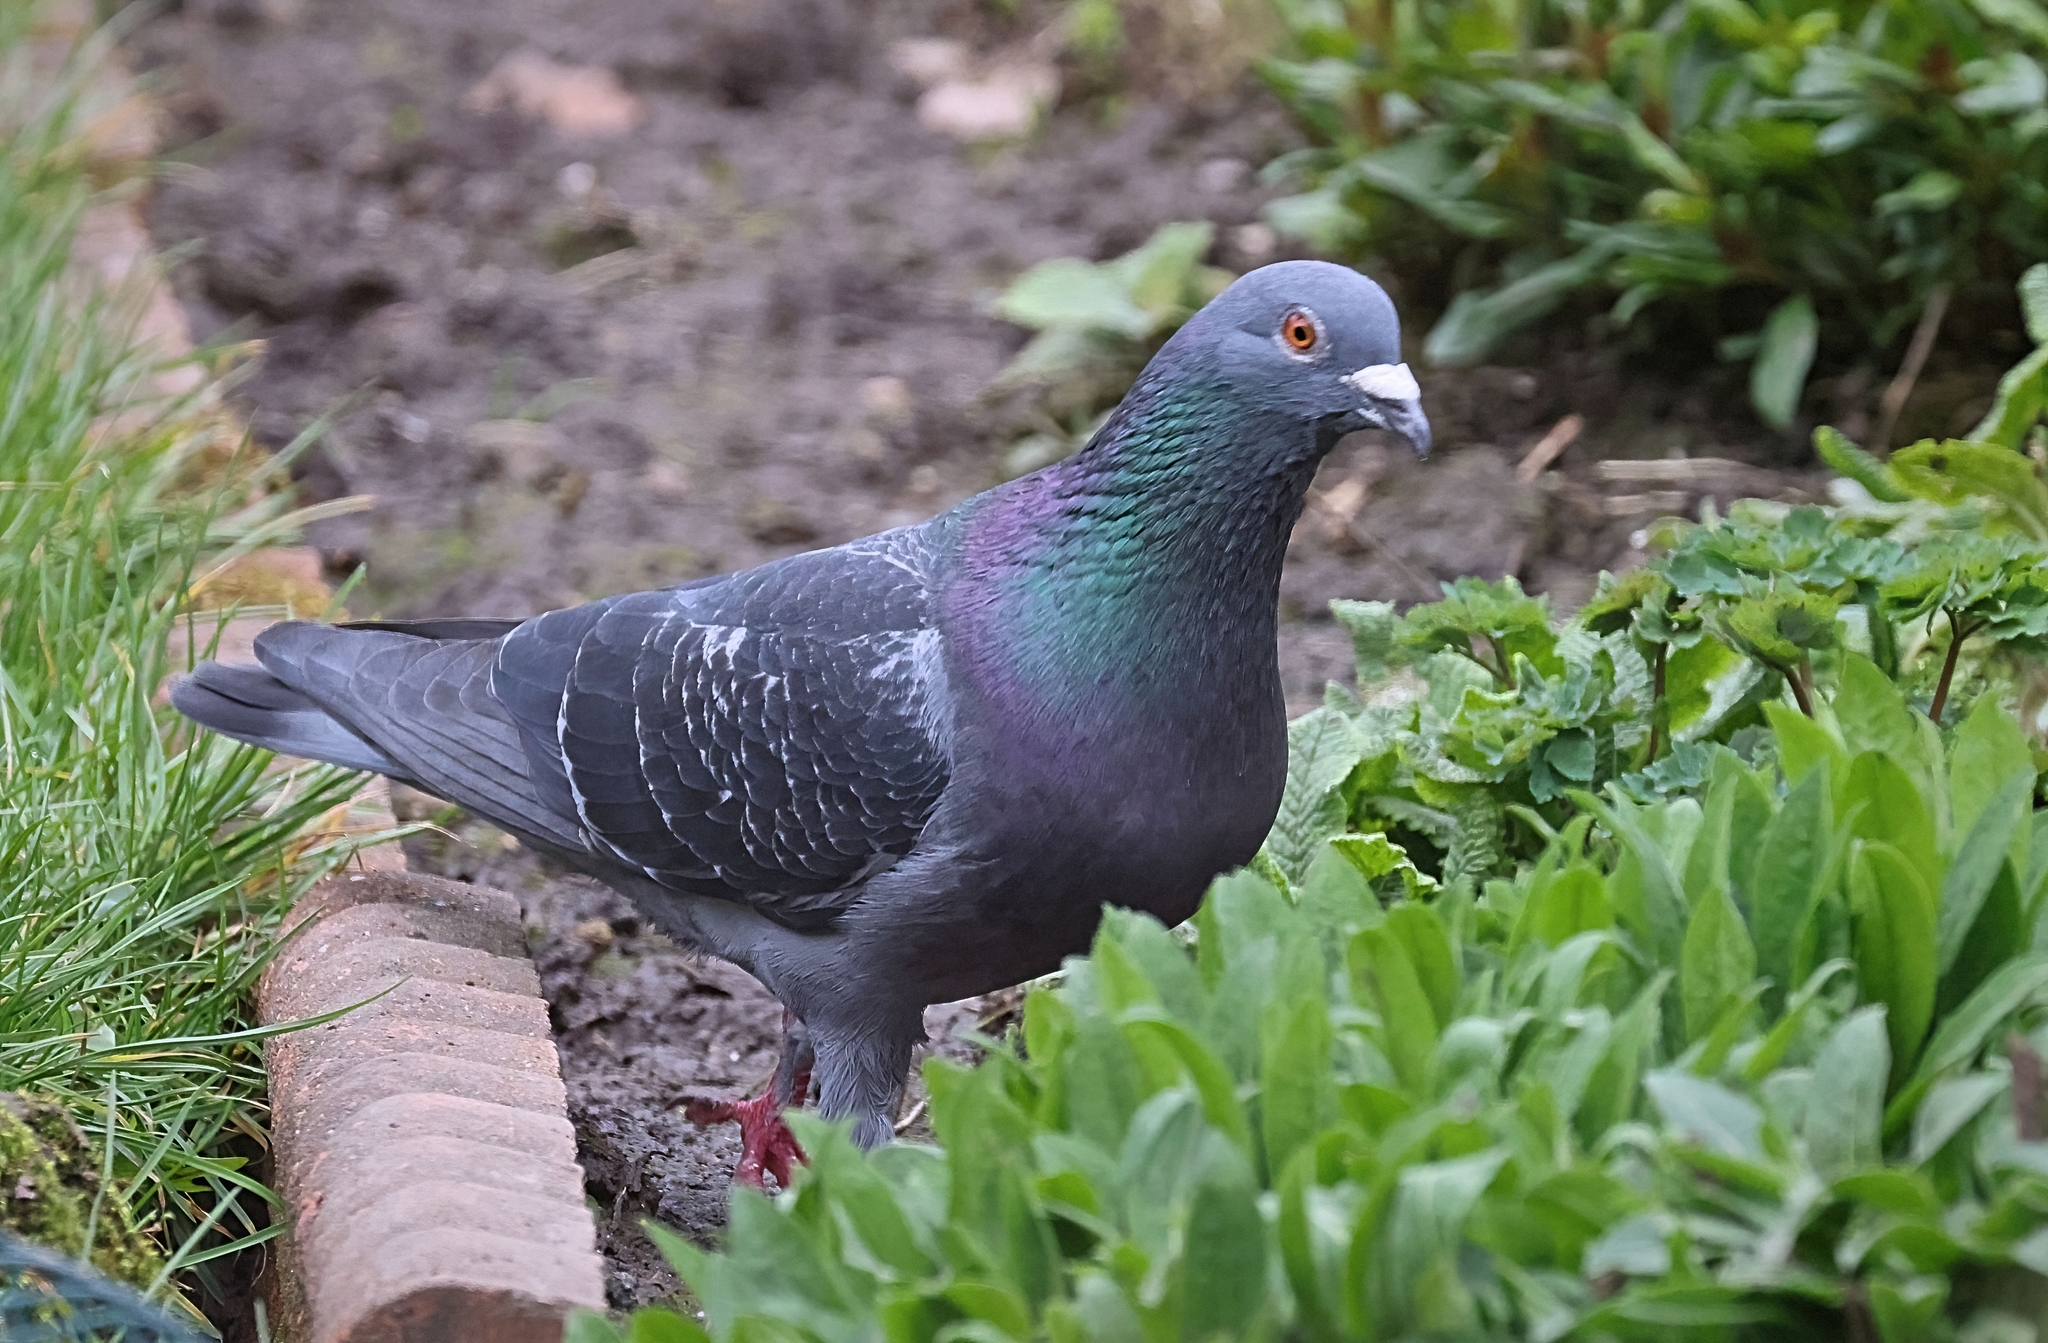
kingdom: Animalia
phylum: Chordata
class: Aves
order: Columbiformes
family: Columbidae
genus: Columba
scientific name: Columba livia
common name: Rock pigeon
